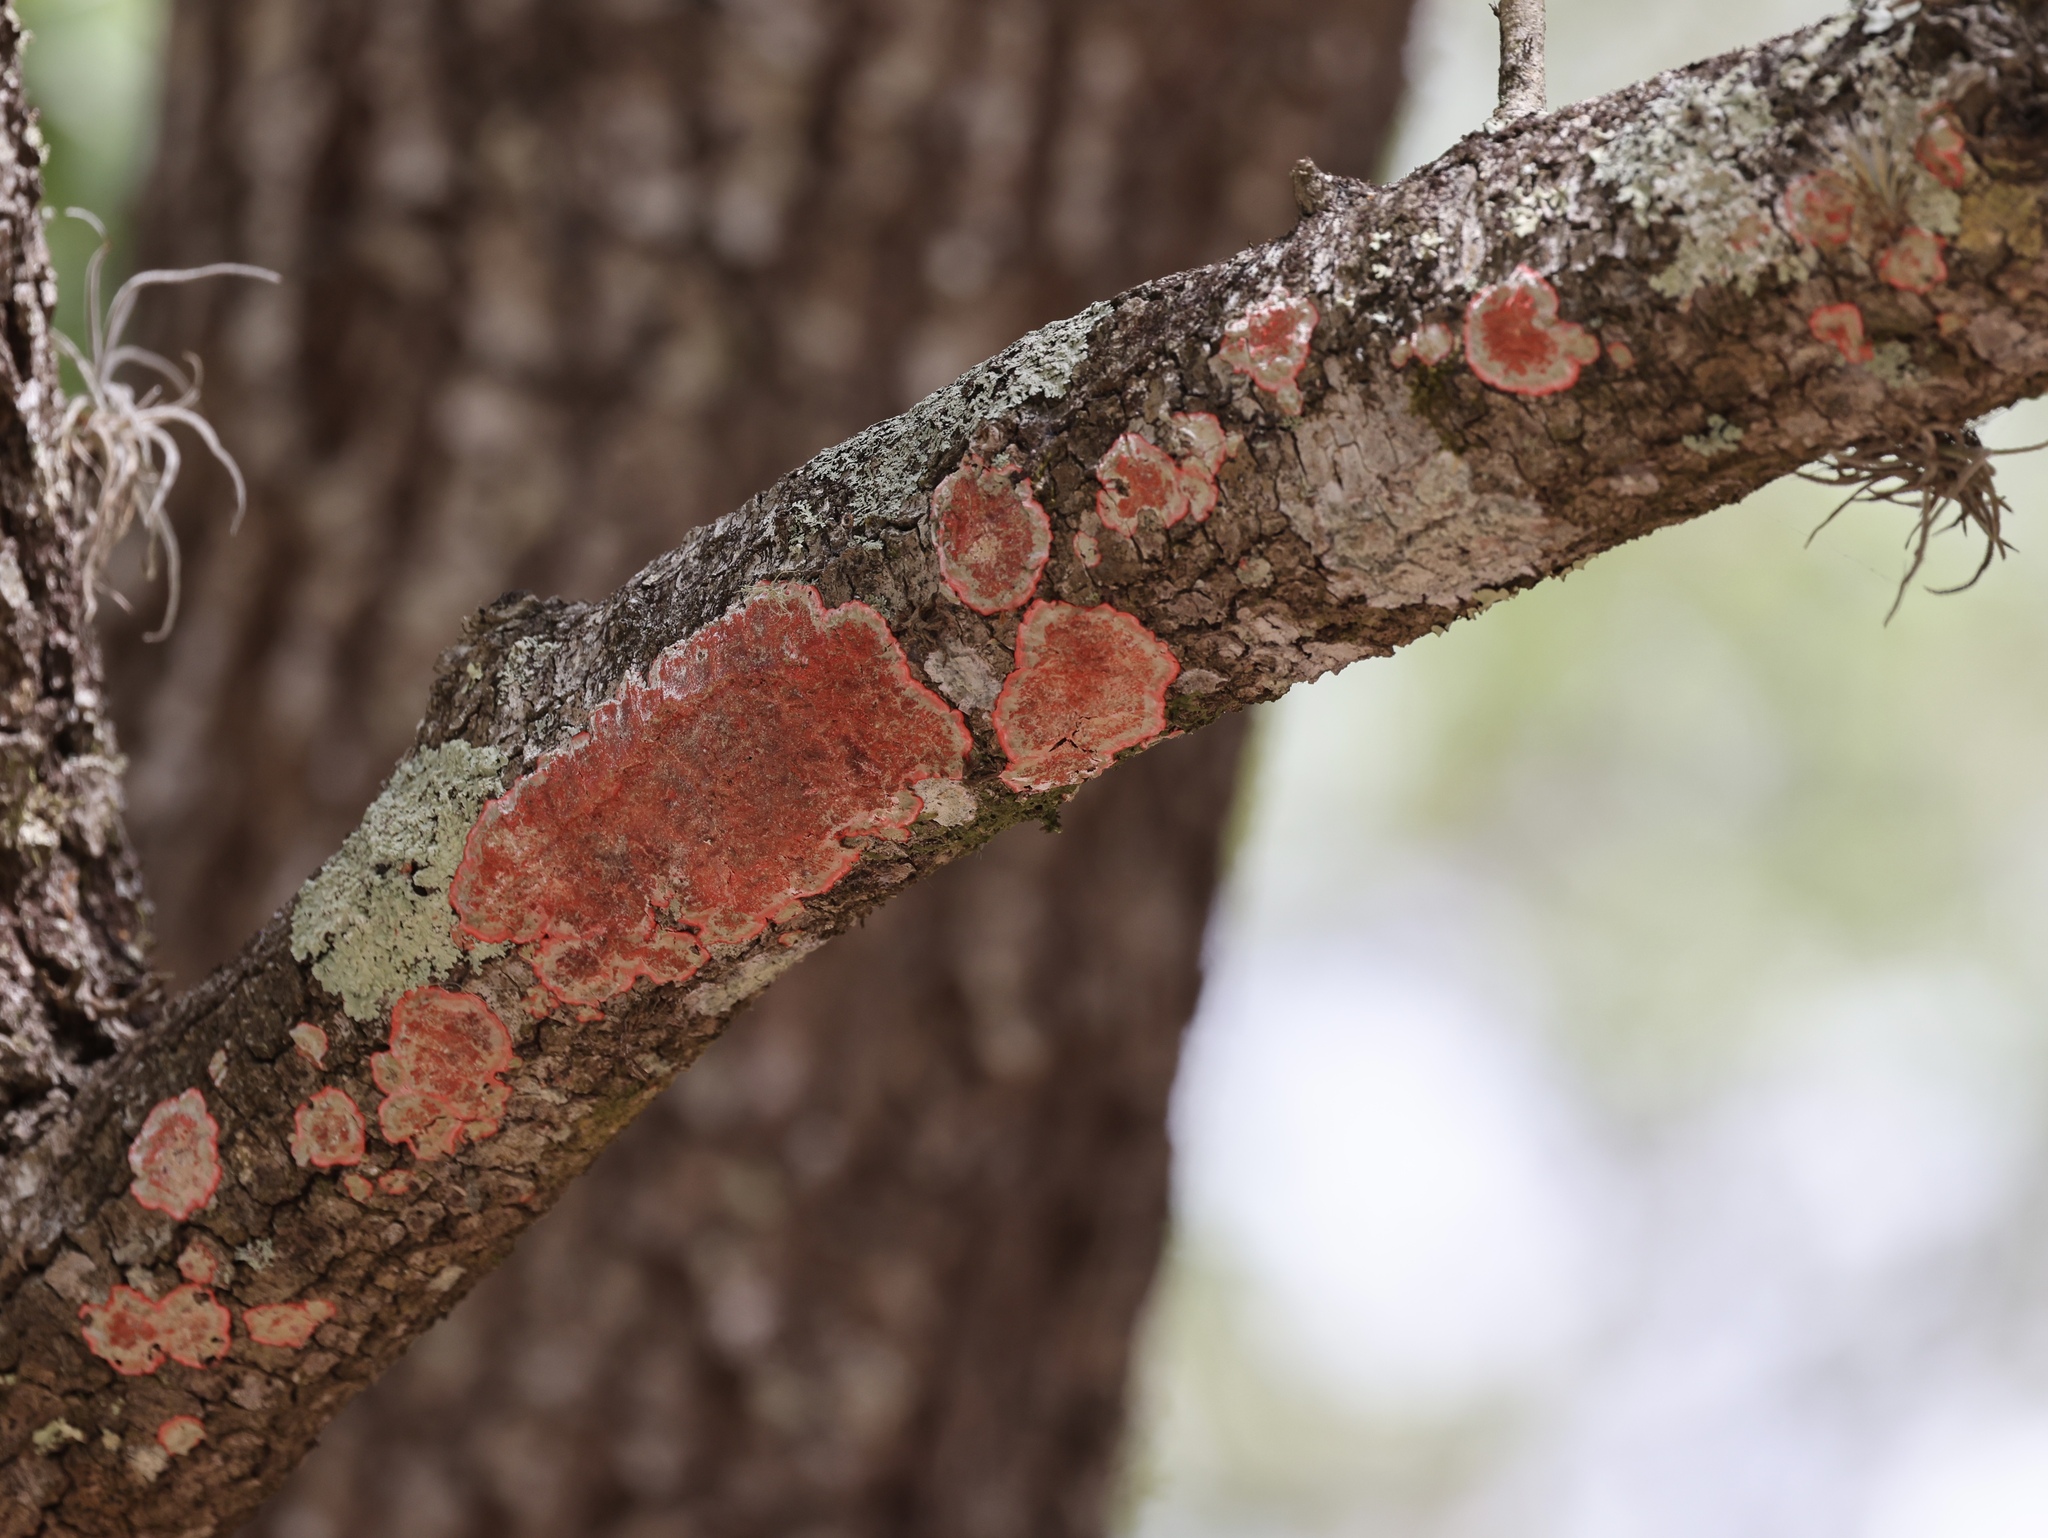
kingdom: Fungi
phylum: Ascomycota
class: Arthoniomycetes
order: Arthoniales
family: Arthoniaceae
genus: Herpothallon
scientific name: Herpothallon rubrocinctum
